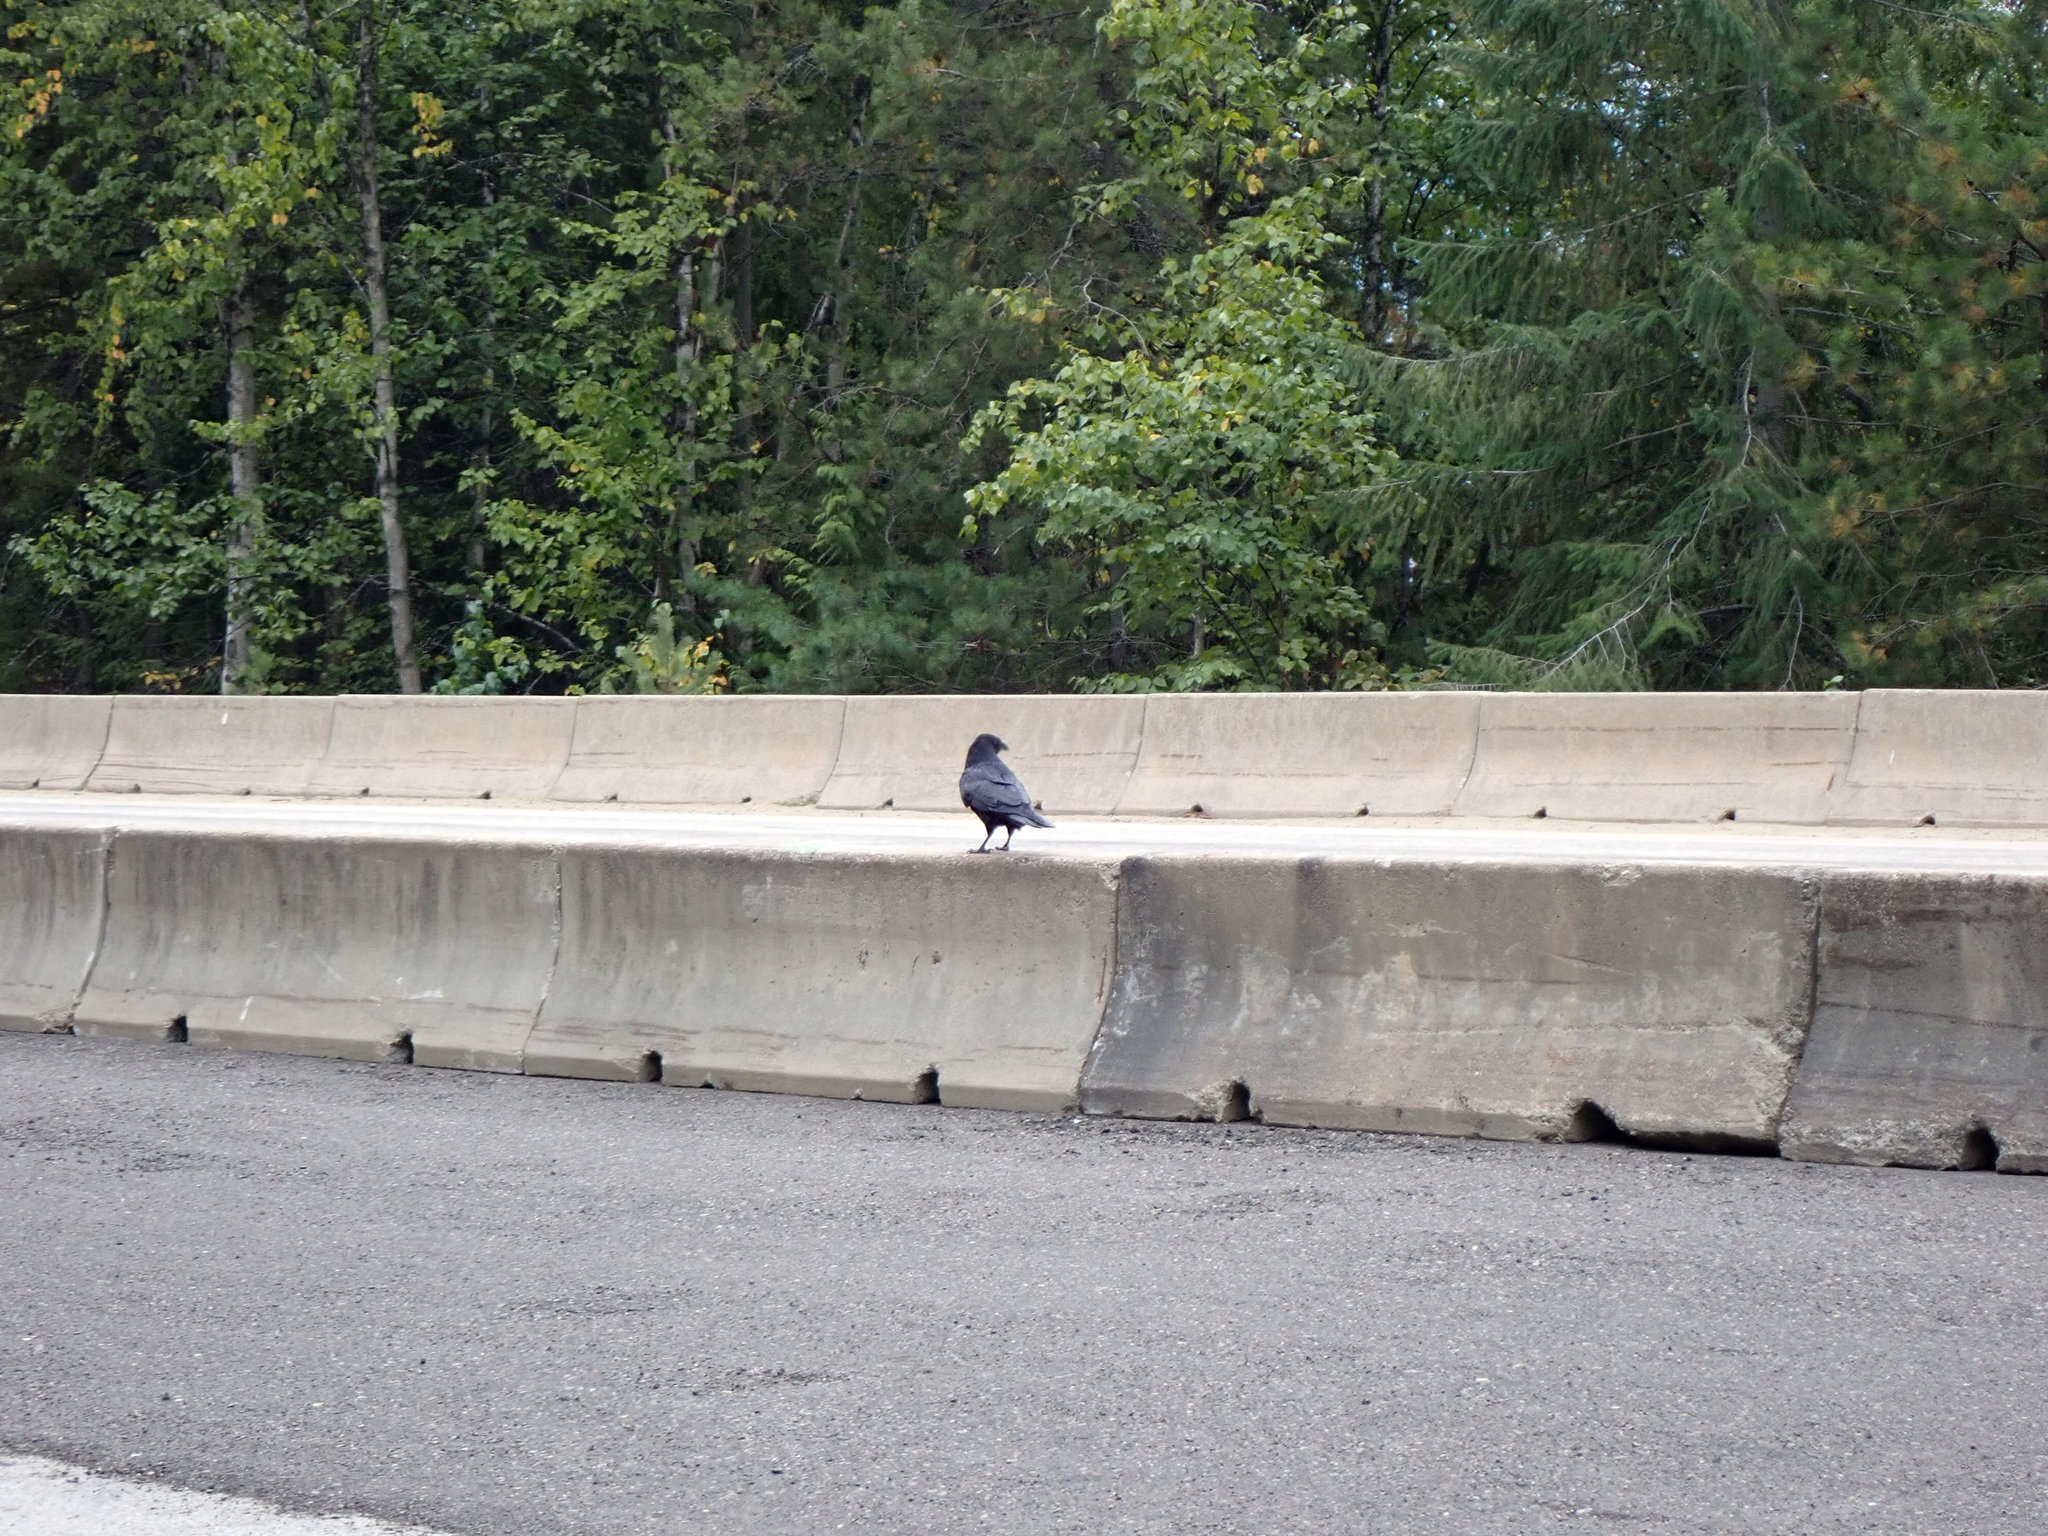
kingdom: Animalia
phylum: Chordata
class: Aves
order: Passeriformes
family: Corvidae
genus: Corvus
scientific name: Corvus corax
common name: Common raven
